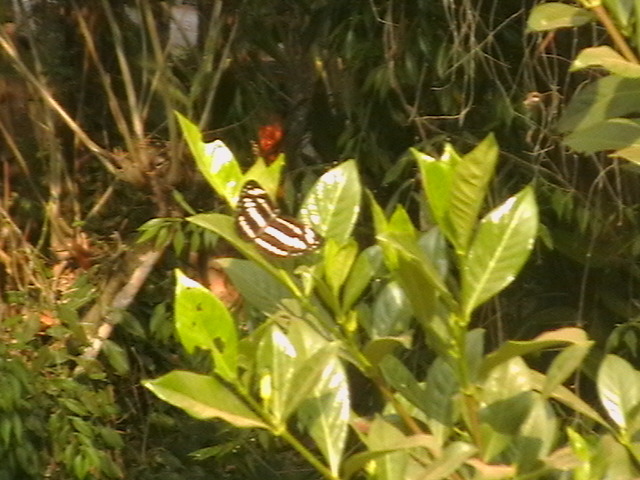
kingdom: Animalia
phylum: Arthropoda
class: Insecta
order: Lepidoptera
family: Nymphalidae
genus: Neptis
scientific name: Neptis hylas
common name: Common sailer
